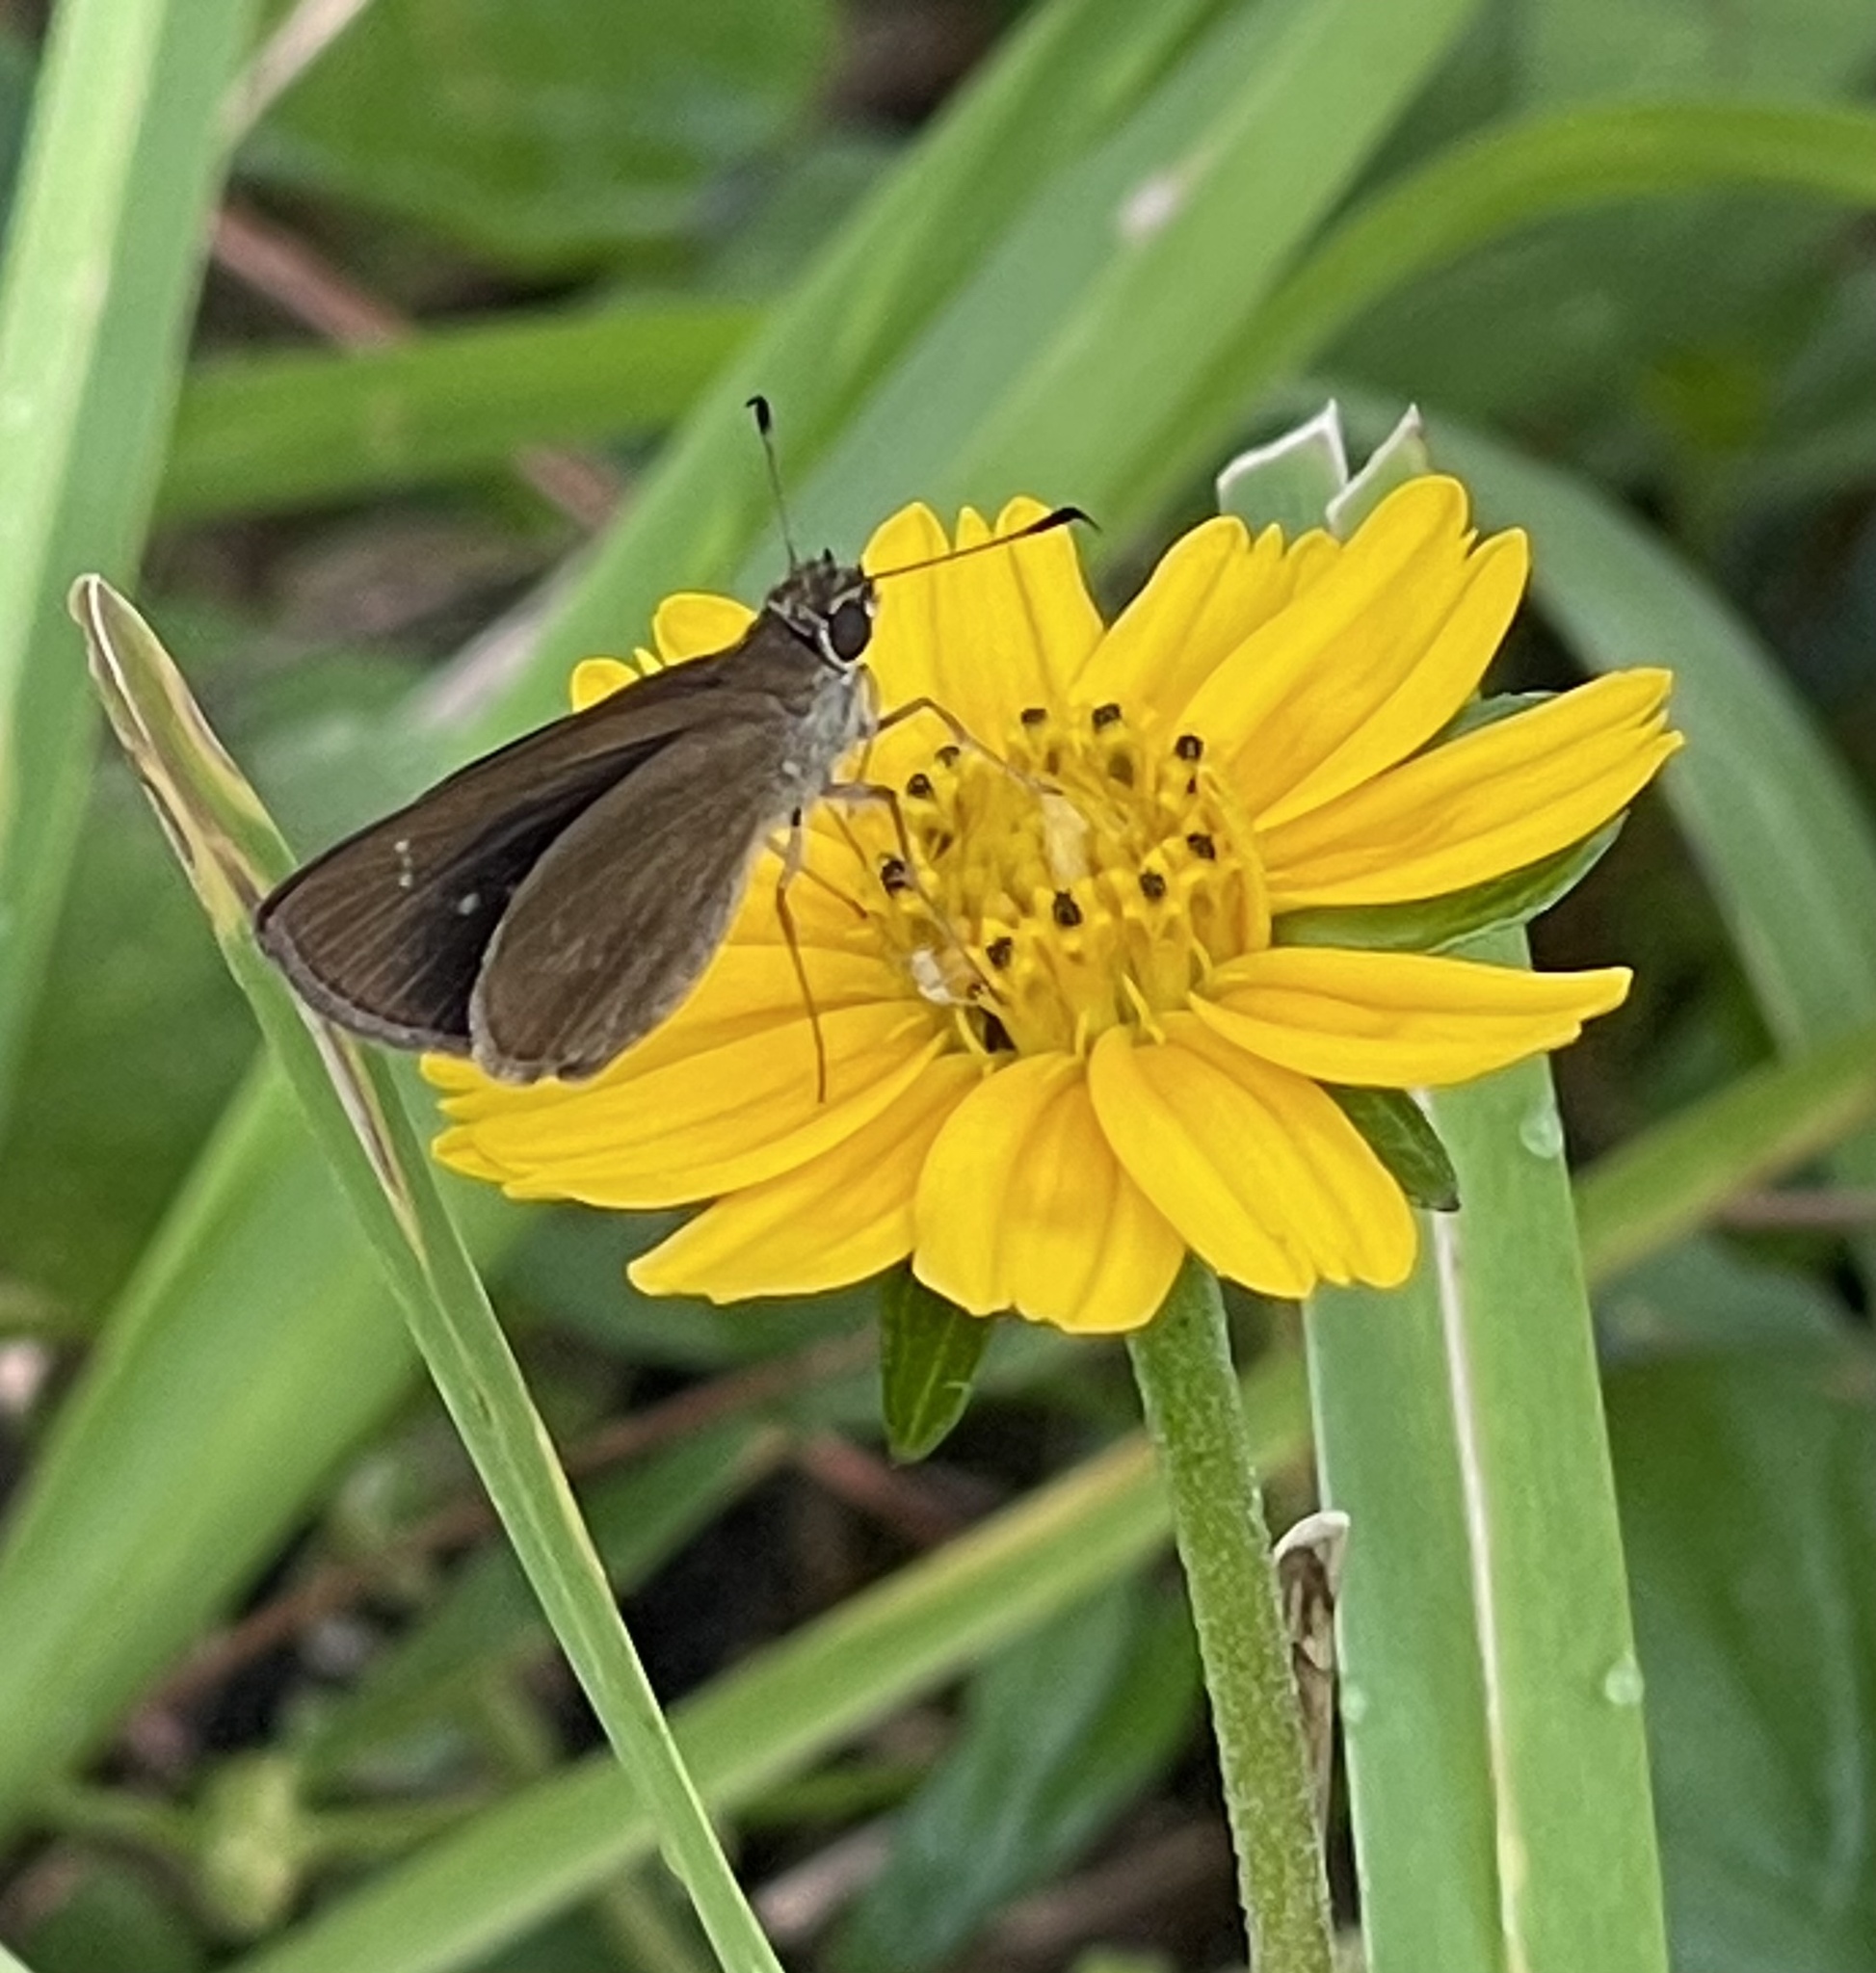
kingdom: Animalia
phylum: Arthropoda
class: Insecta
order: Lepidoptera
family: Hesperiidae
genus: Cymaenes
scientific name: Cymaenes tripunctus
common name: Dingy dotted skipper
